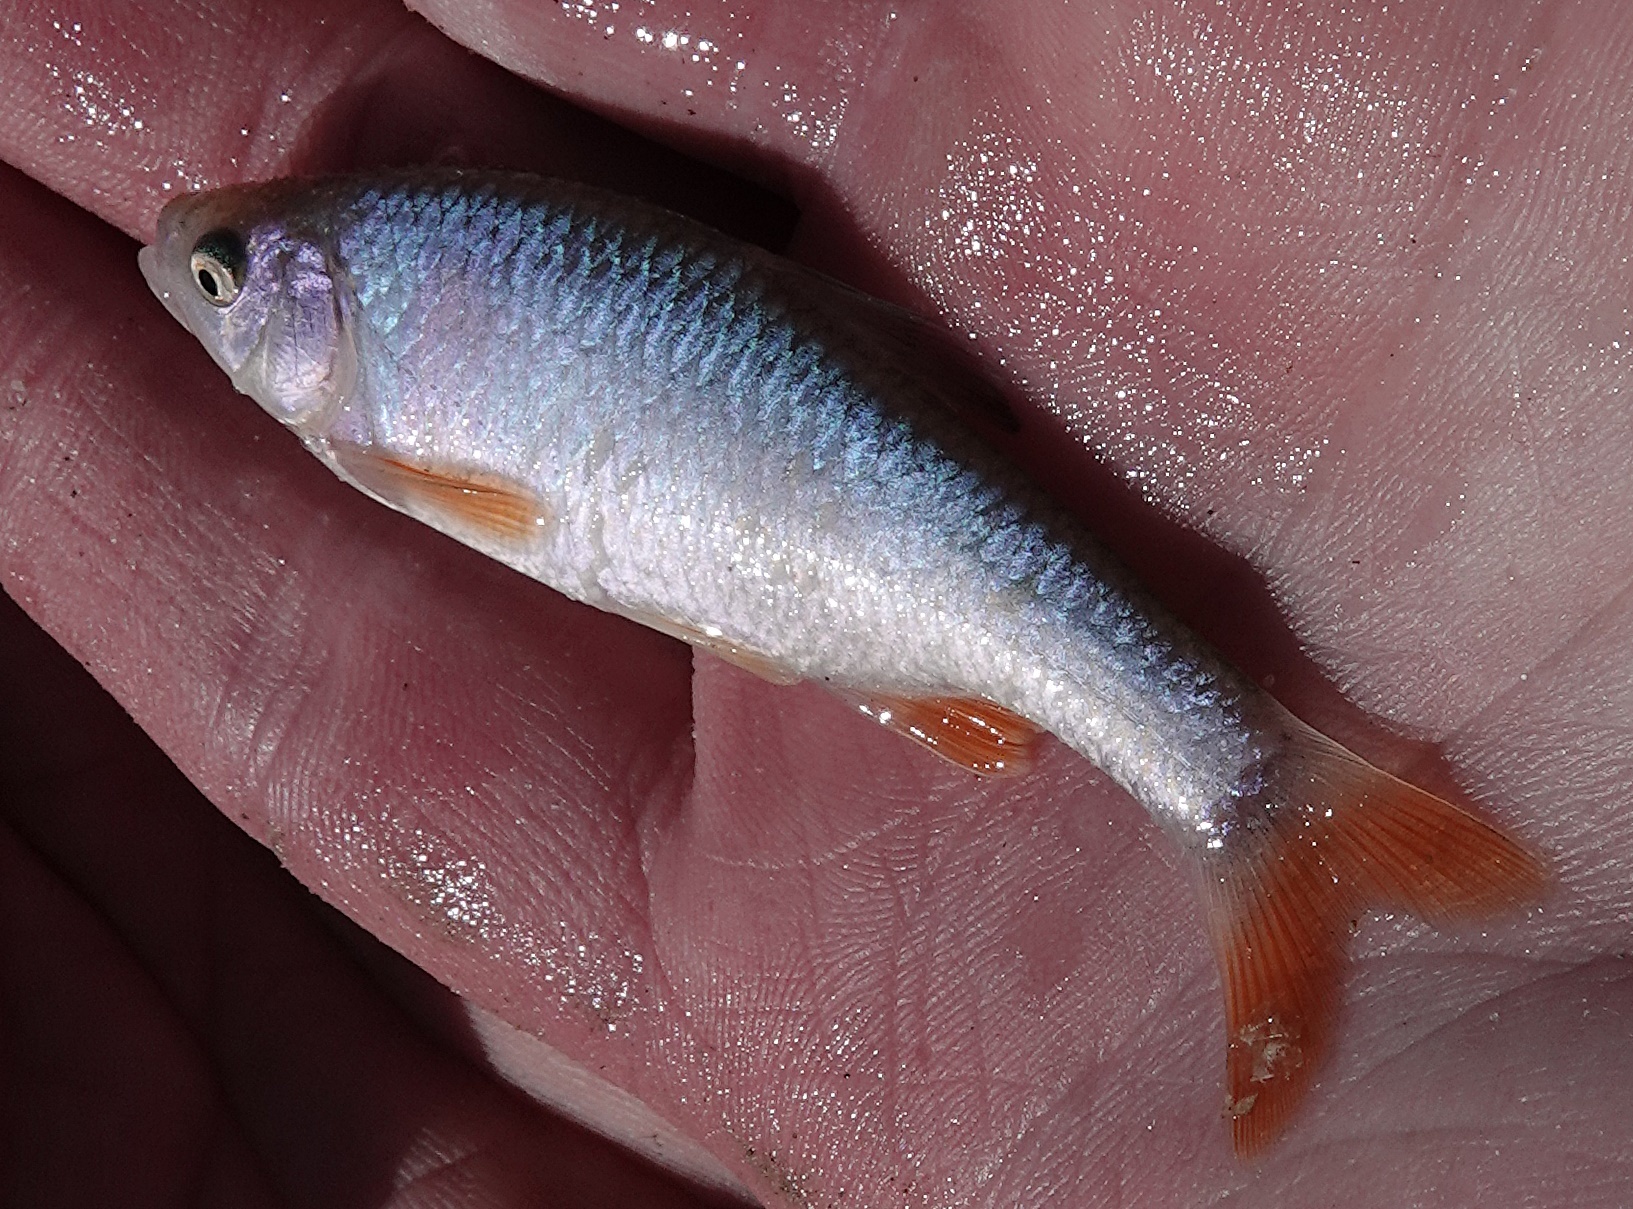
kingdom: Animalia
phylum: Chordata
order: Cypriniformes
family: Cyprinidae
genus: Cyprinella
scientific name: Cyprinella lutrensis
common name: Red shiner
